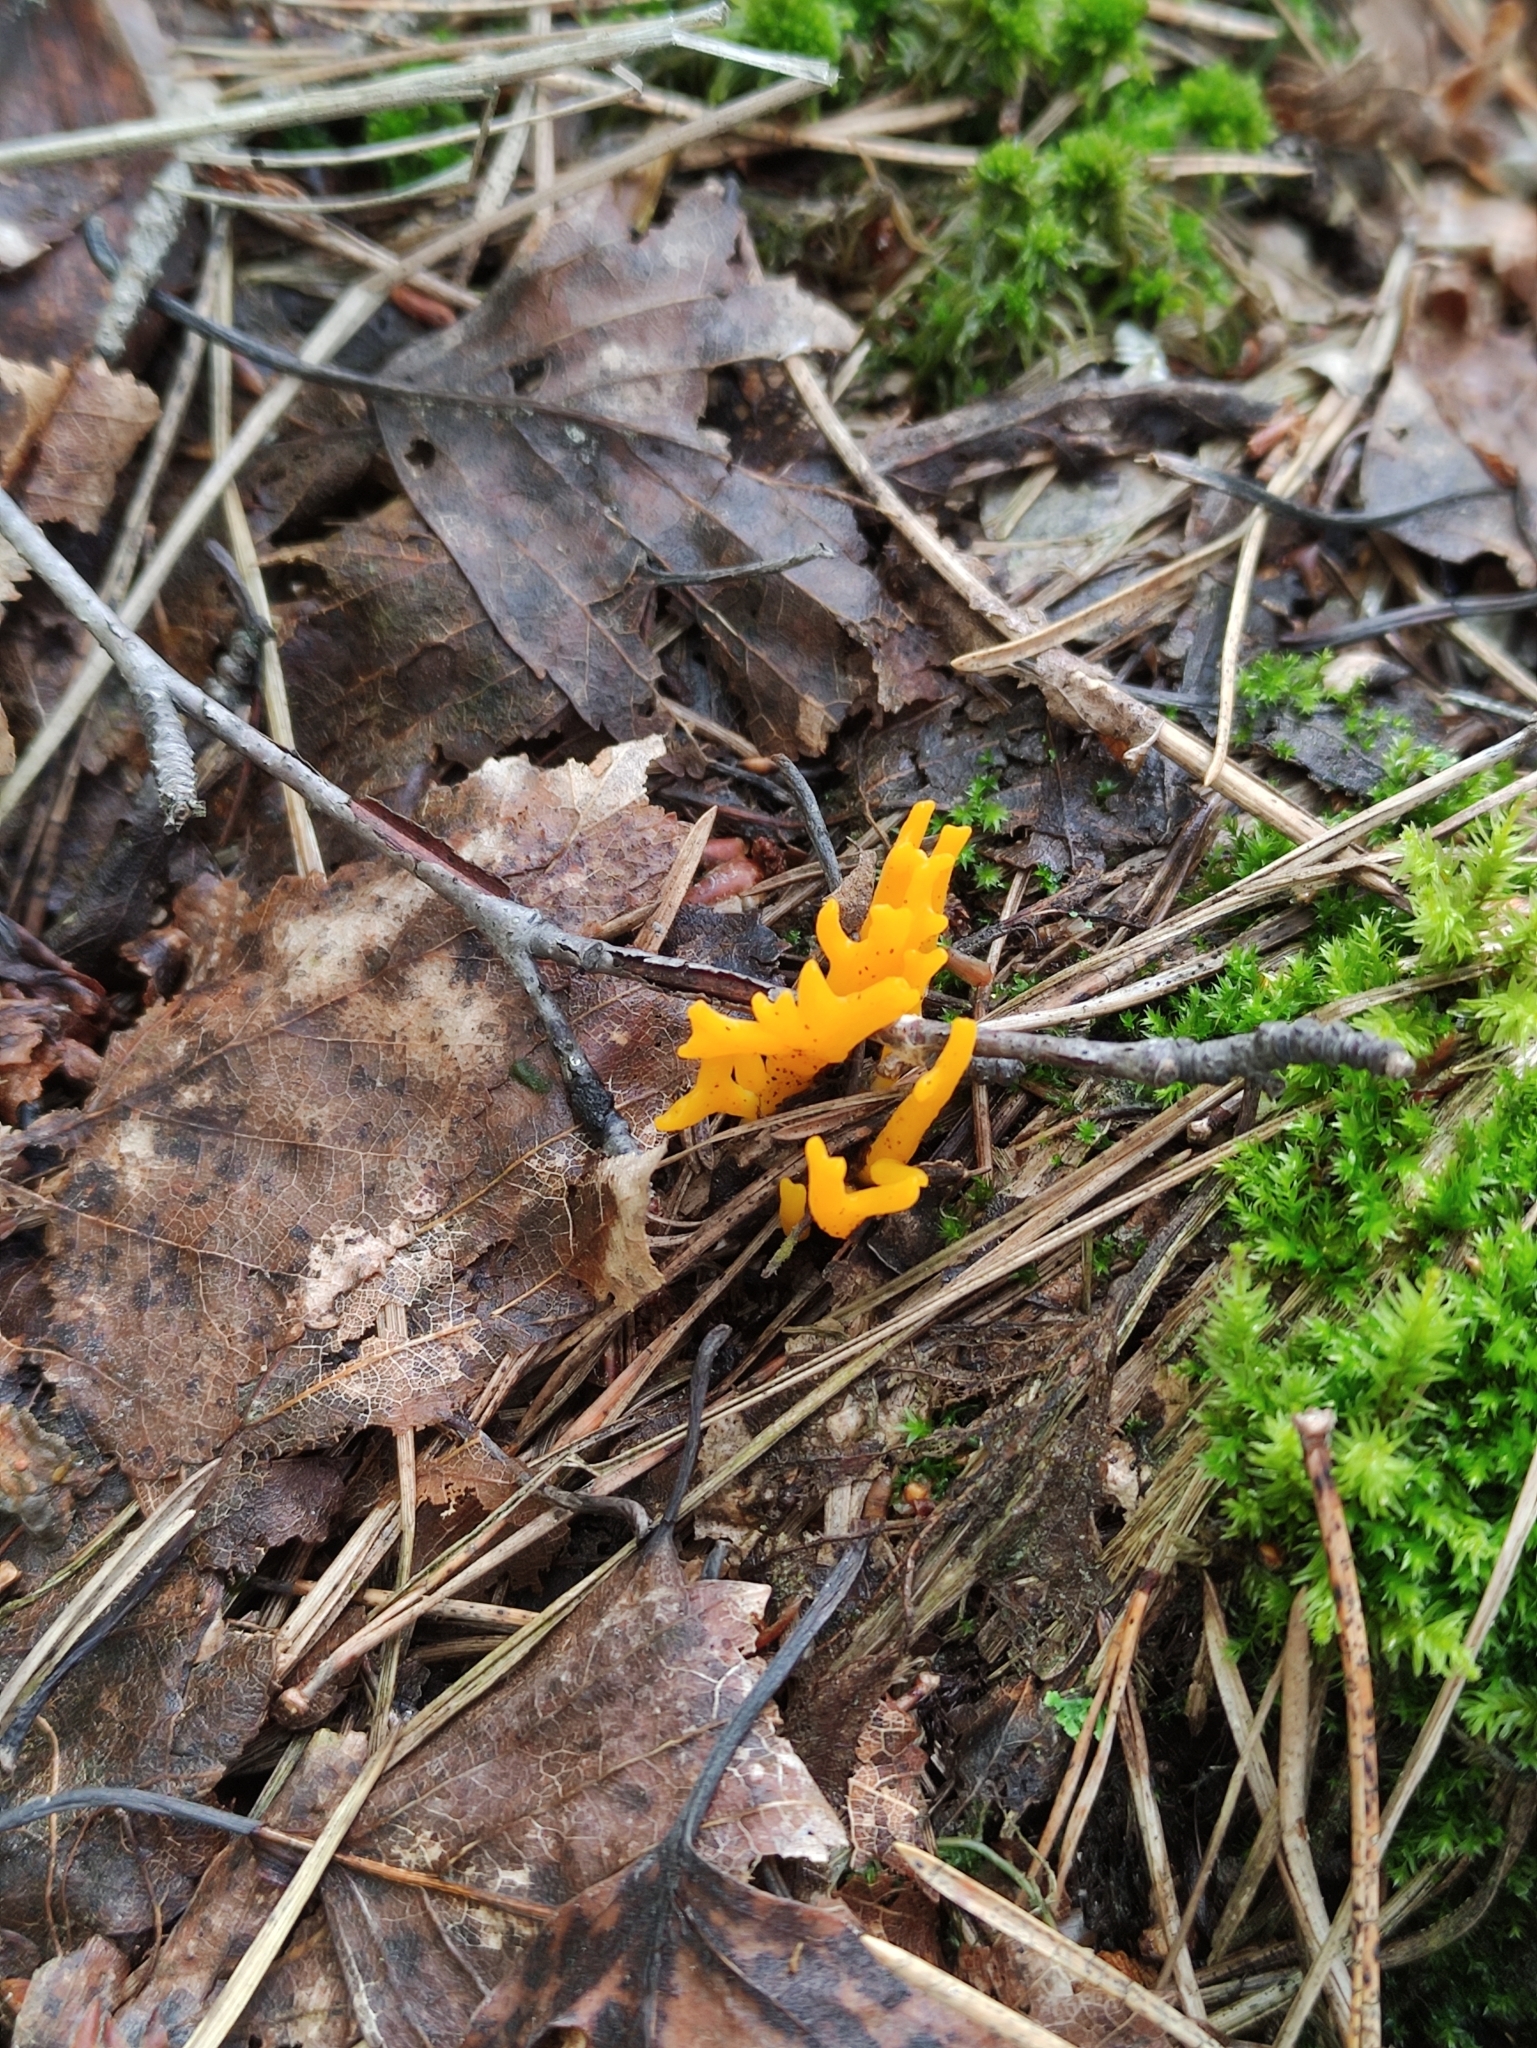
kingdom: Fungi
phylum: Basidiomycota
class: Dacrymycetes
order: Dacrymycetales
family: Dacrymycetaceae
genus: Calocera
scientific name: Calocera viscosa
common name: Yellow stagshorn
